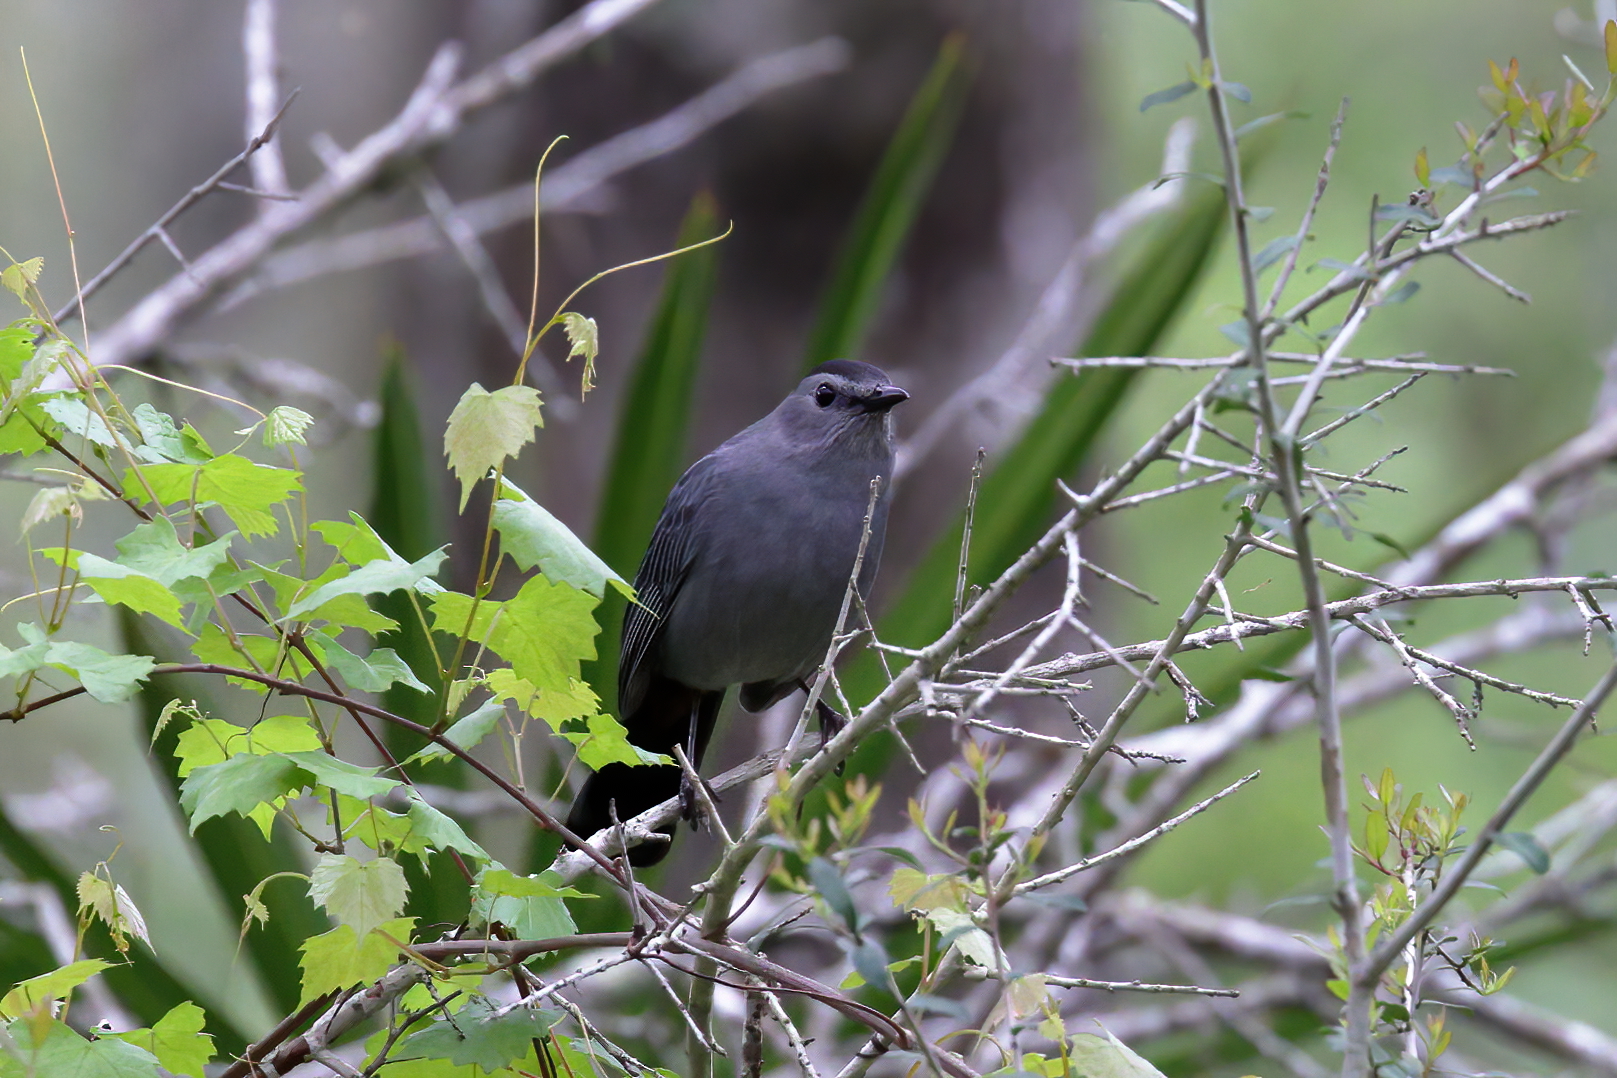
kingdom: Animalia
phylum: Chordata
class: Aves
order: Passeriformes
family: Mimidae
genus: Dumetella
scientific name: Dumetella carolinensis
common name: Gray catbird
